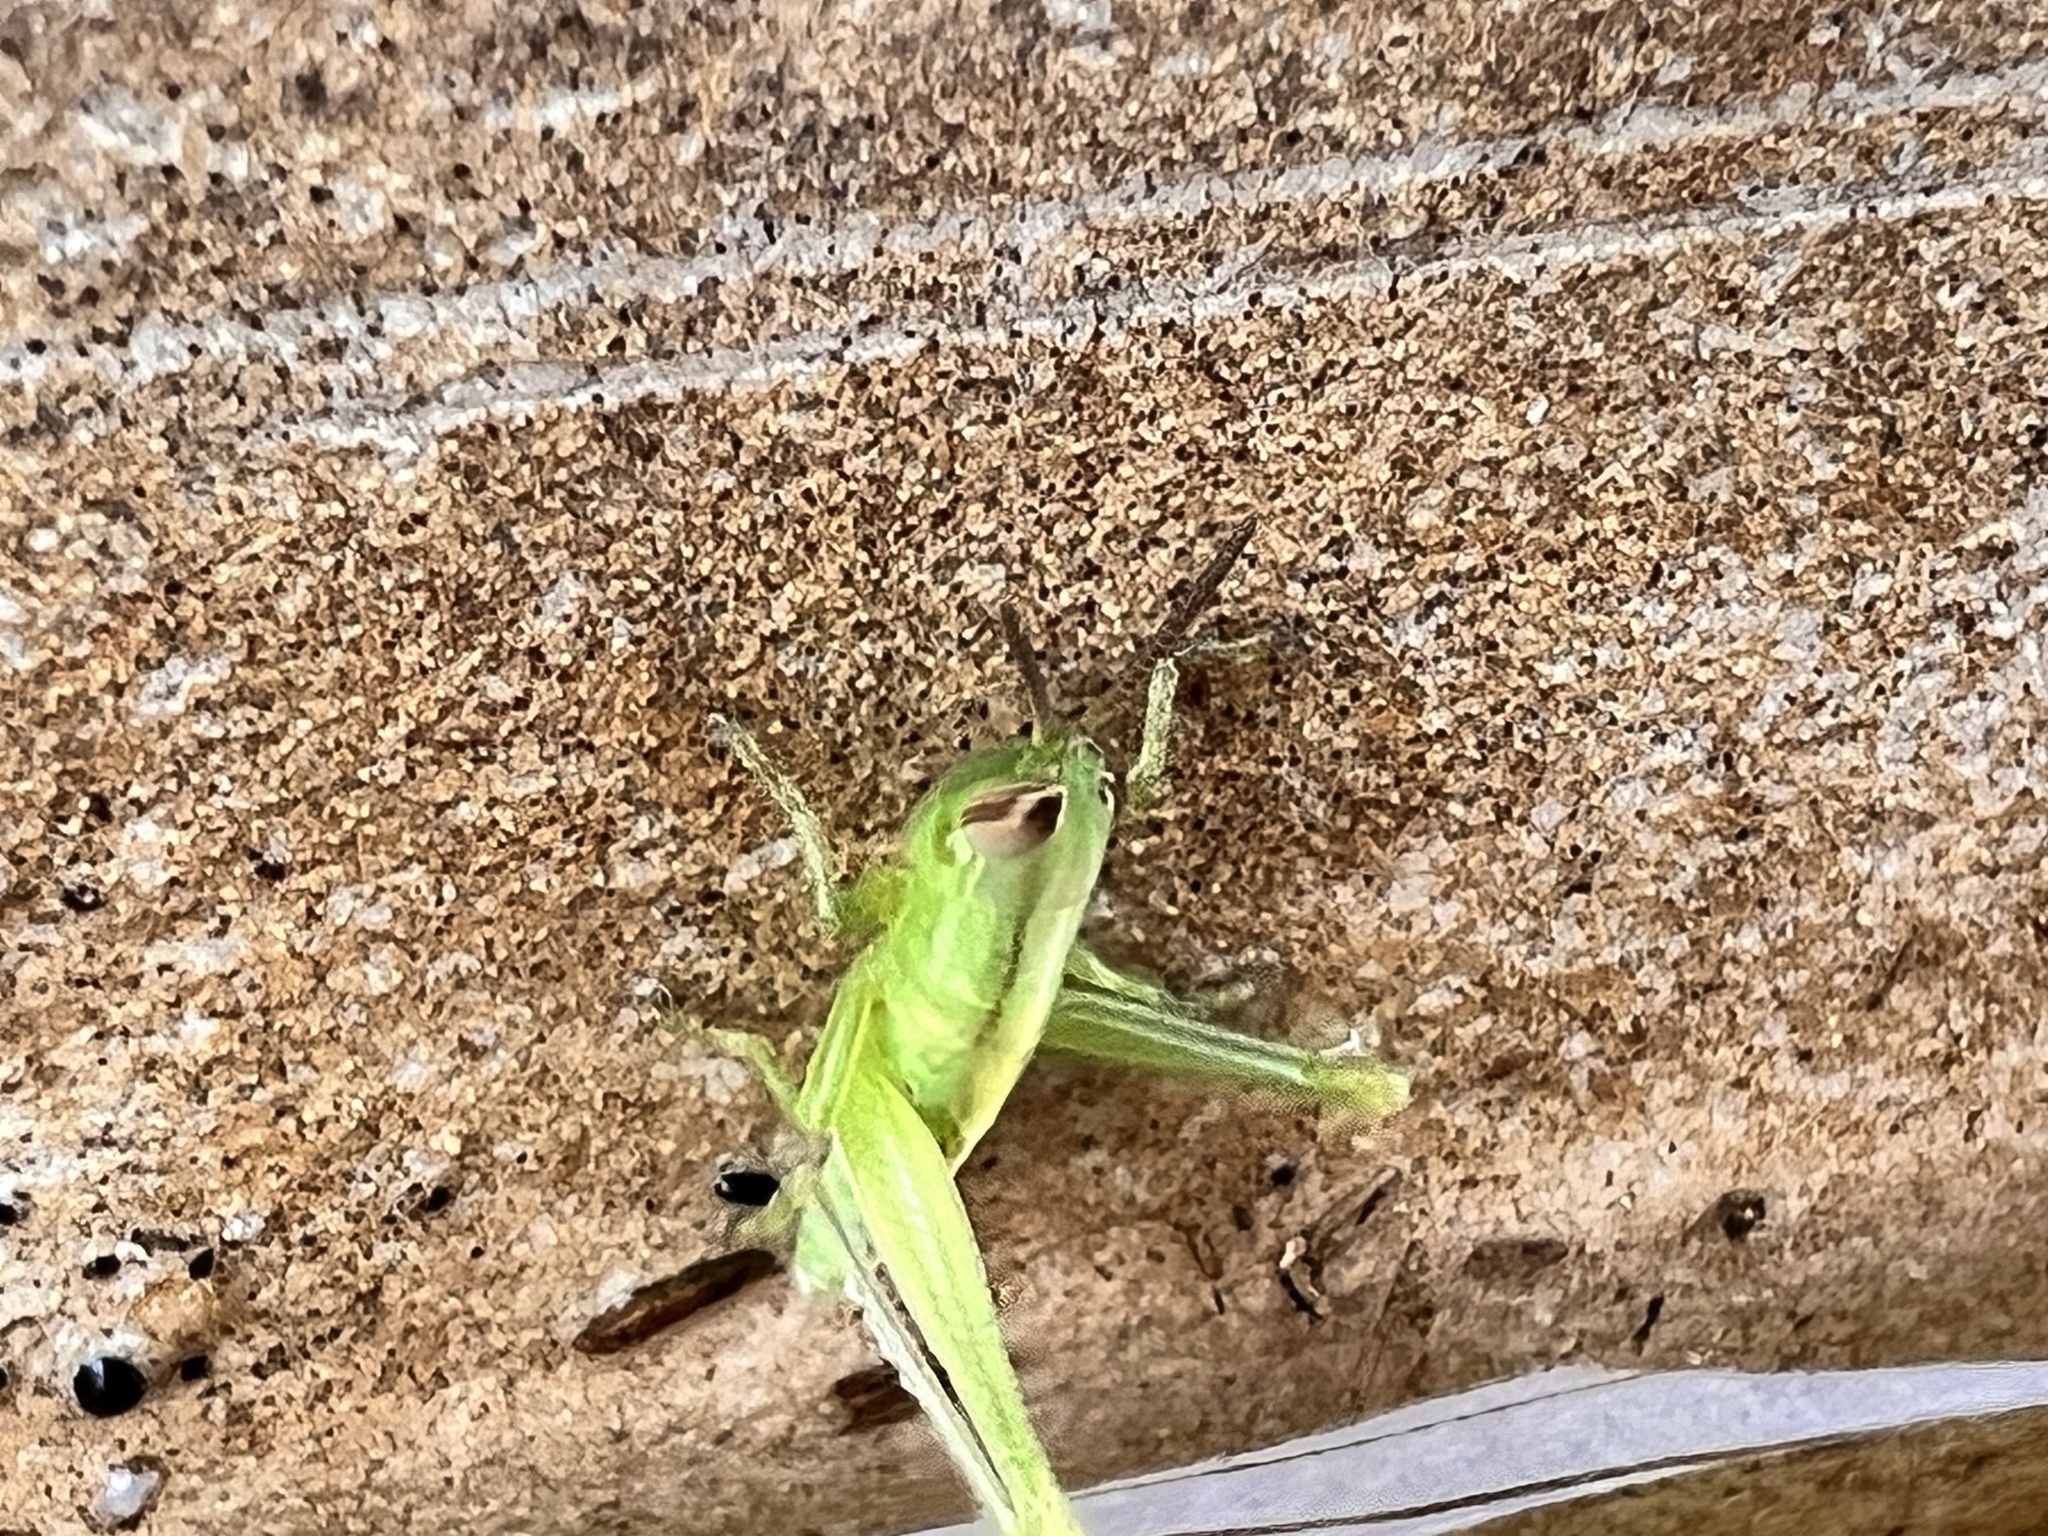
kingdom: Animalia
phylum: Arthropoda
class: Insecta
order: Orthoptera
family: Acrididae
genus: Bermius
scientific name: Bermius brachycerus
